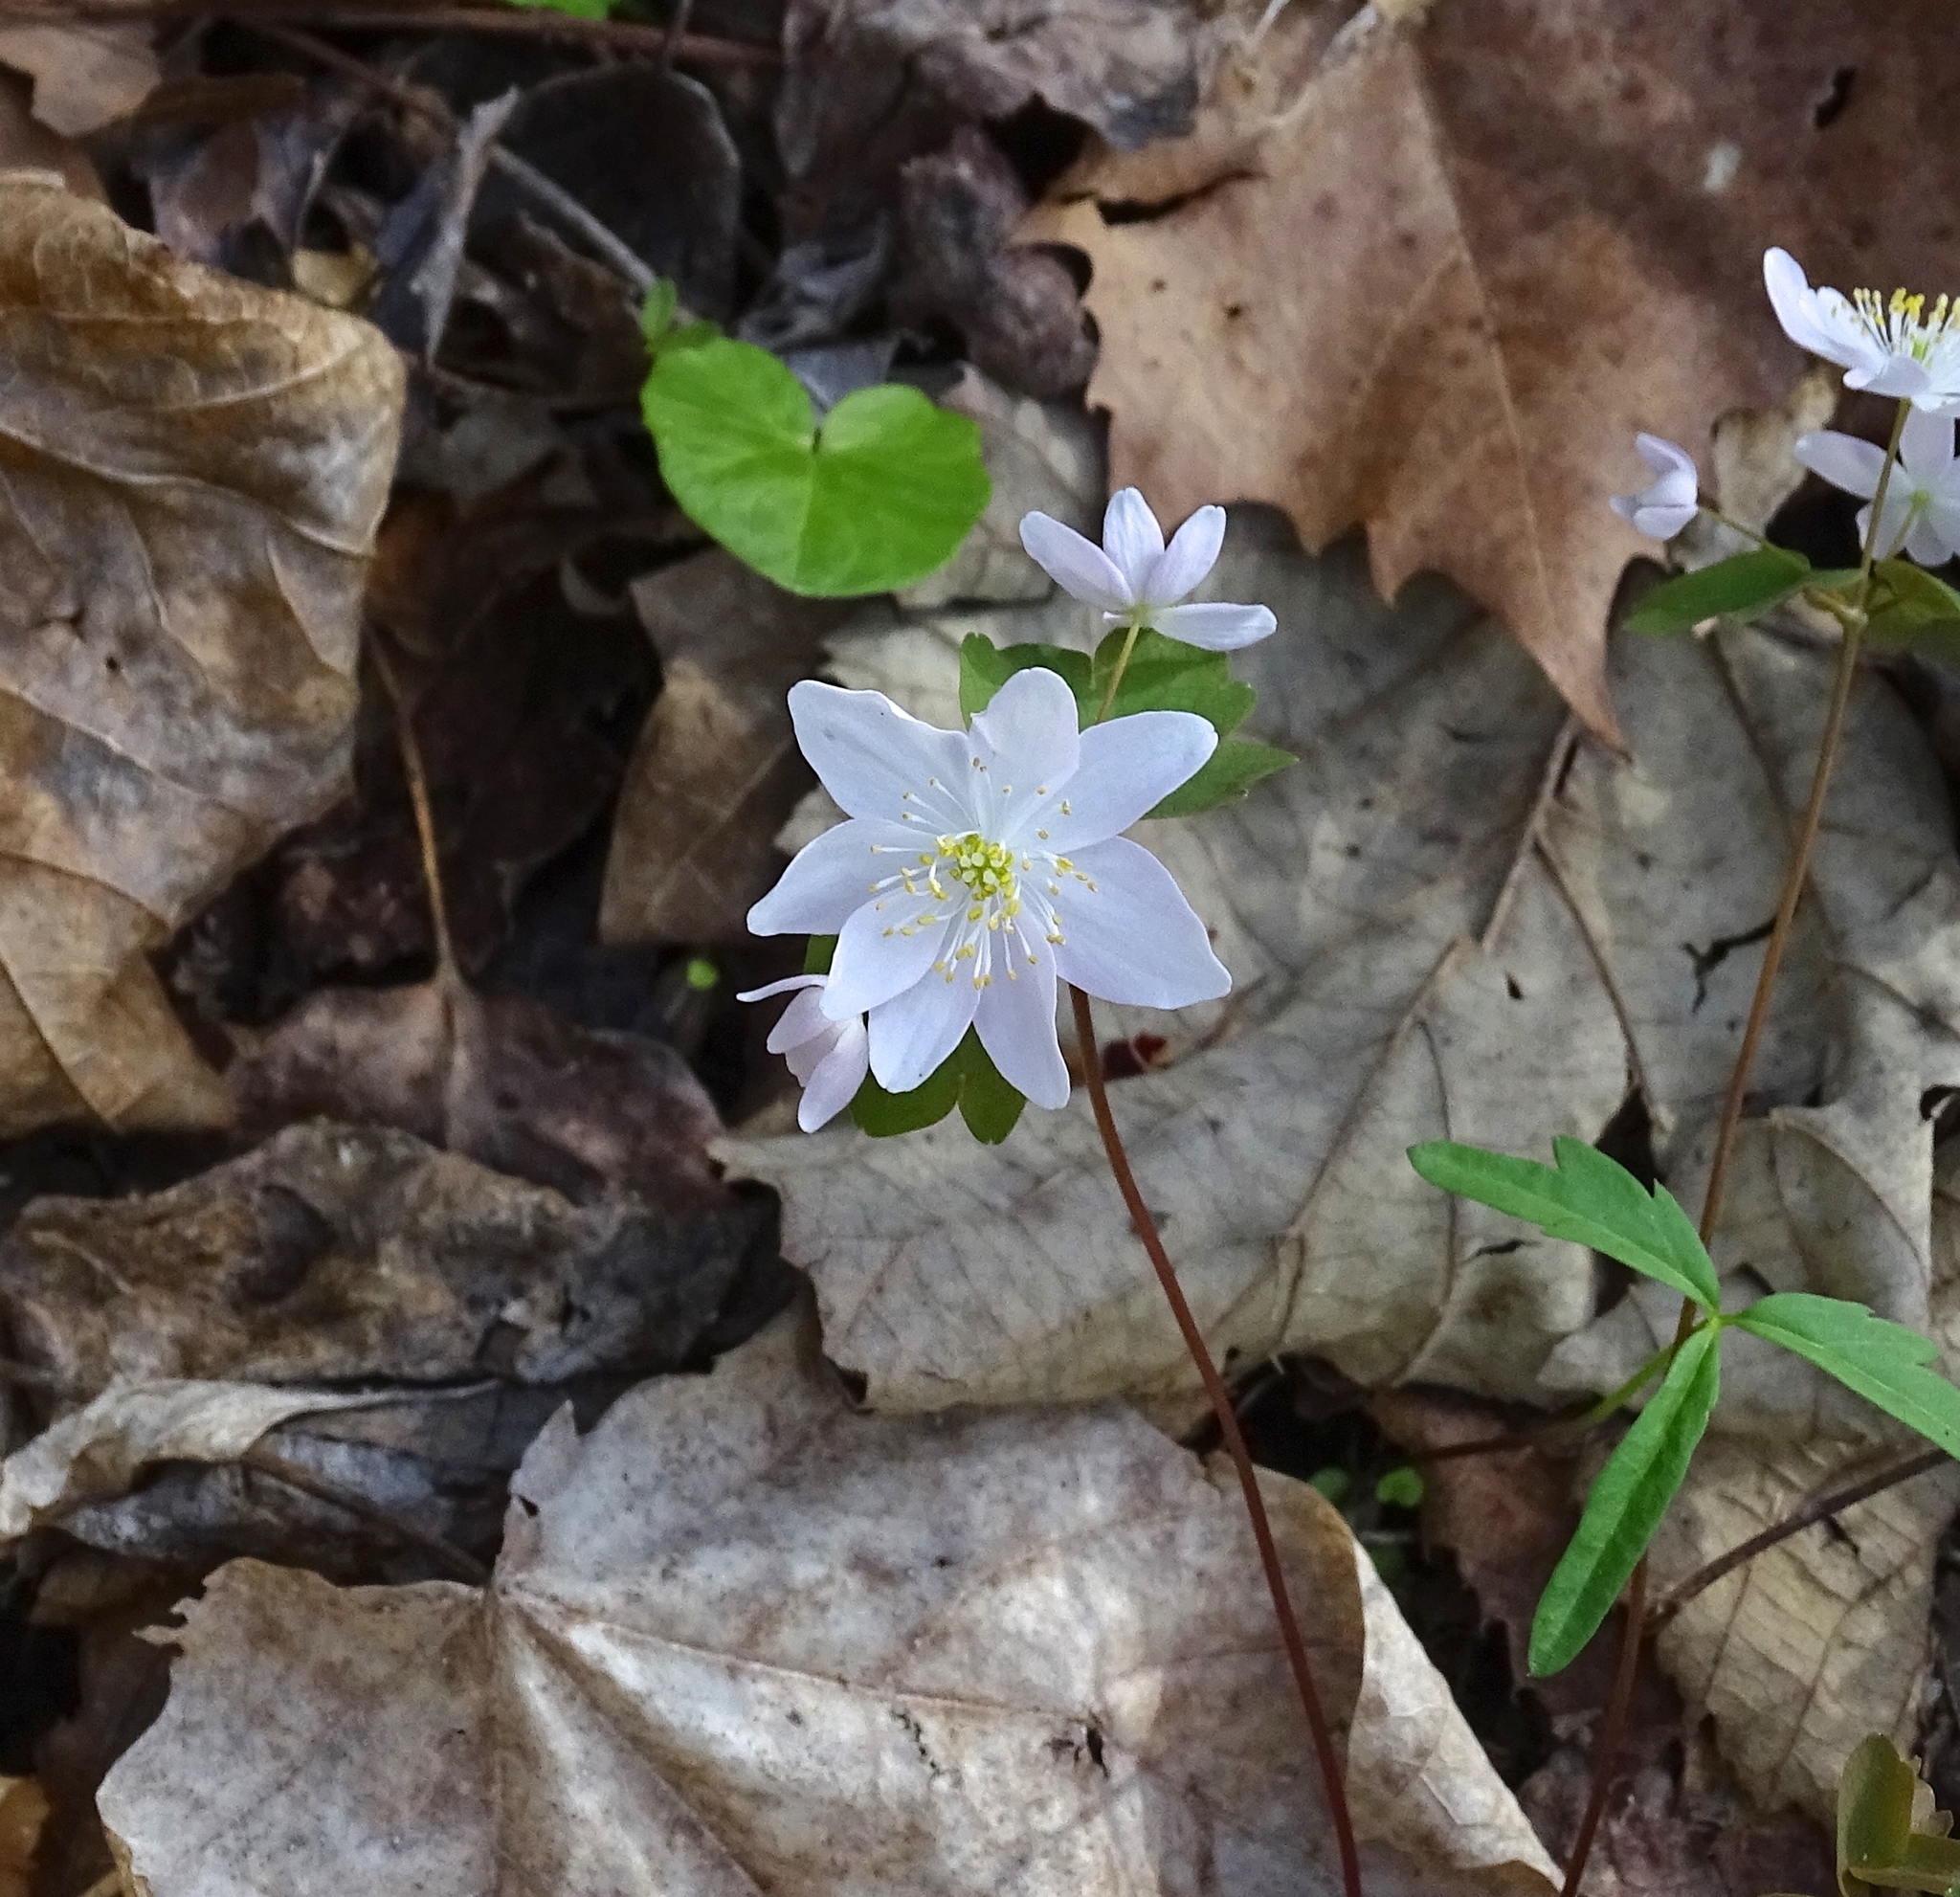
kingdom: Plantae
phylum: Tracheophyta
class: Magnoliopsida
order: Ranunculales
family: Ranunculaceae
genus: Thalictrum
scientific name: Thalictrum thalictroides
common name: Rue-anemone
